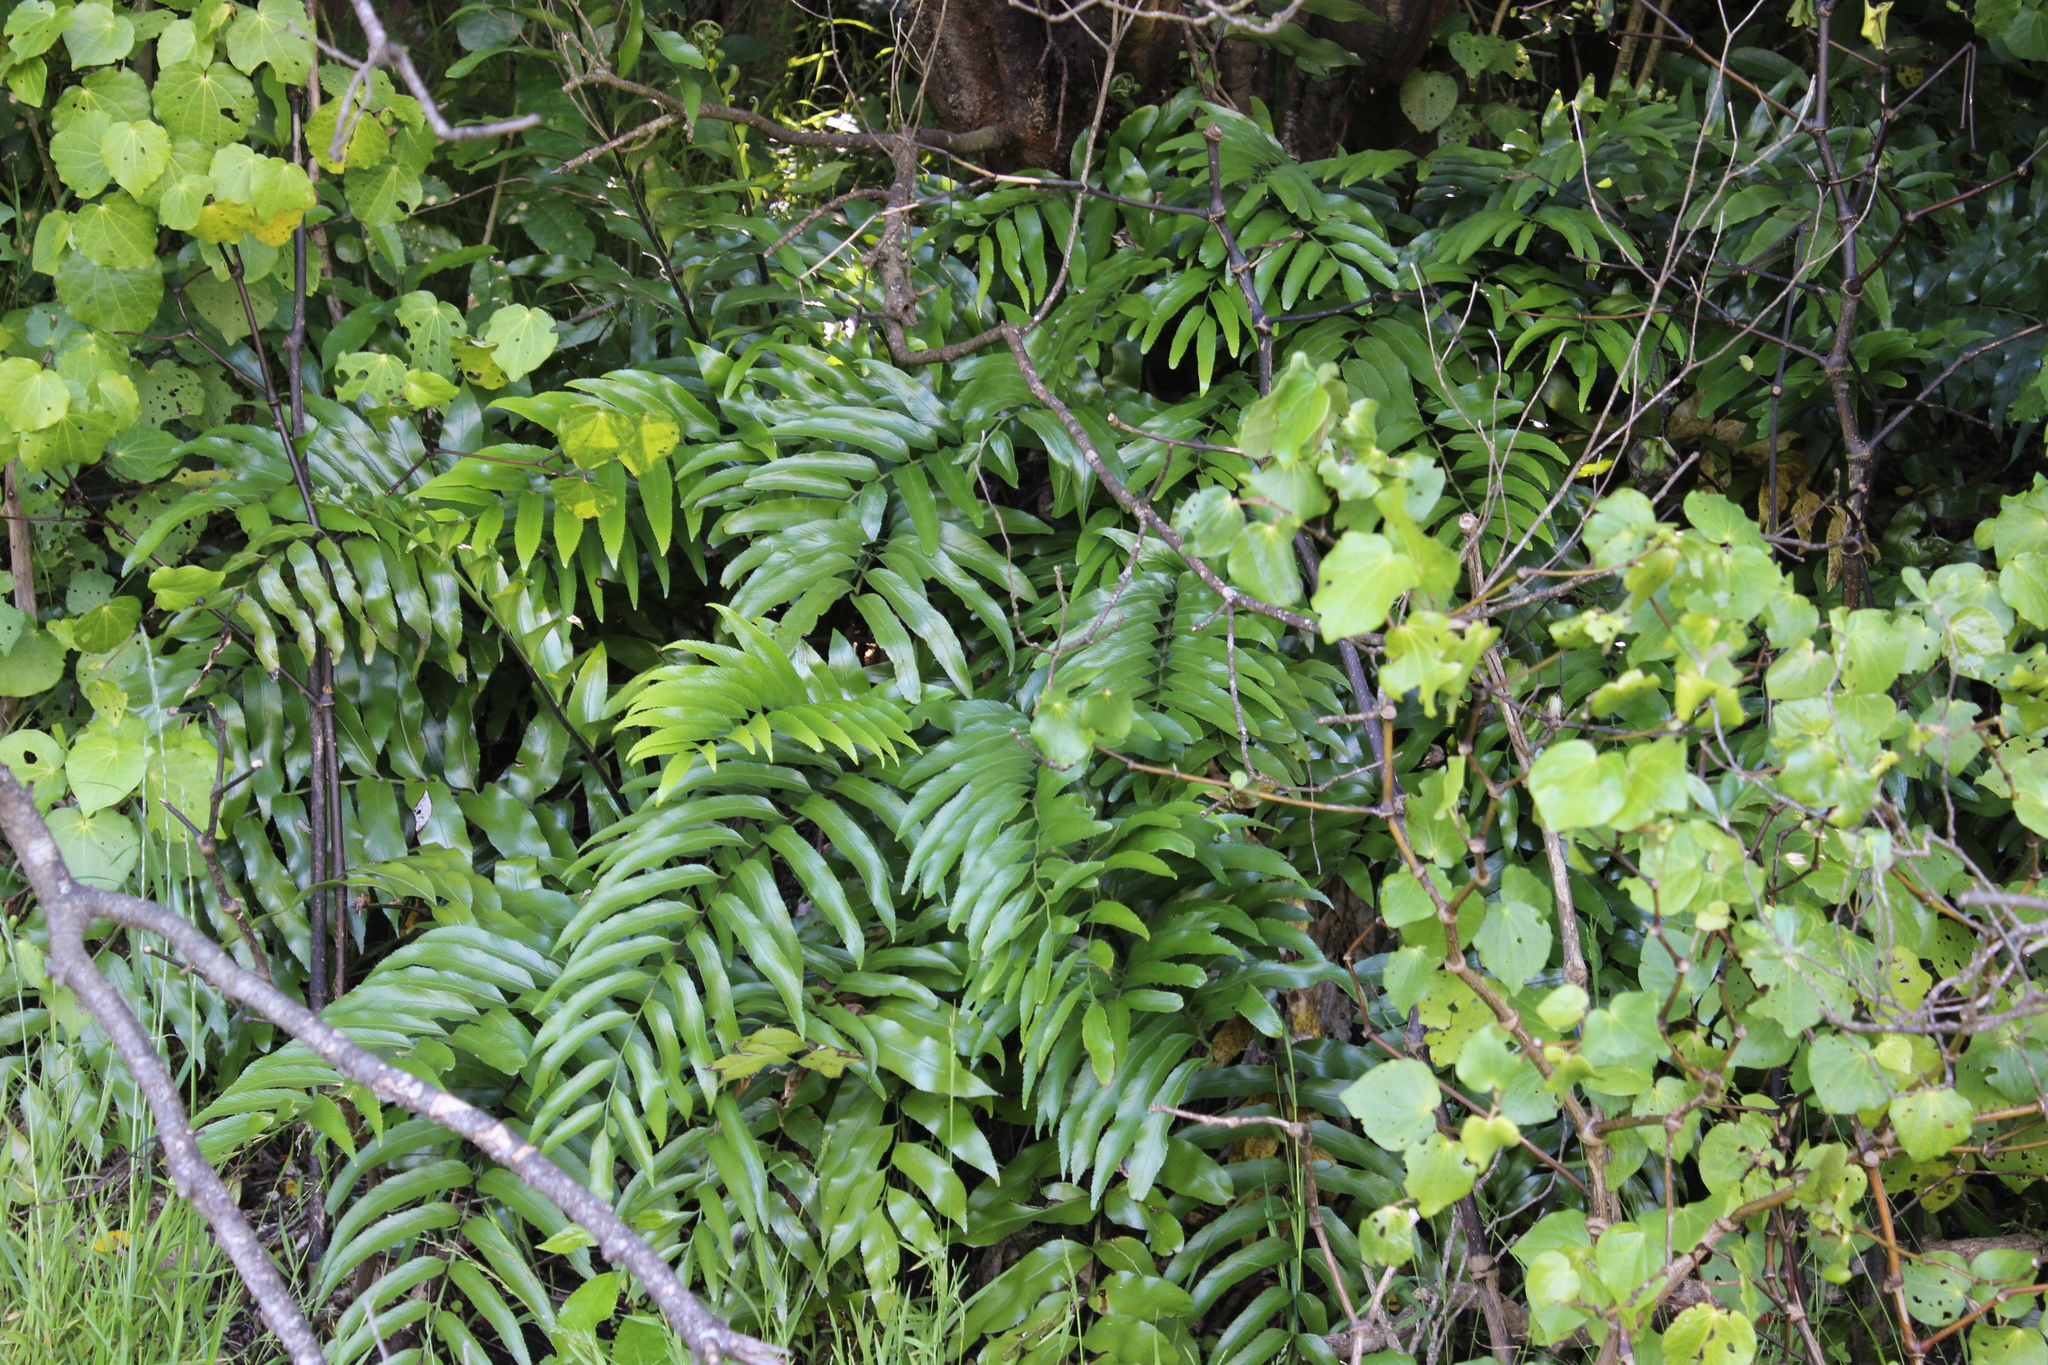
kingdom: Plantae
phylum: Tracheophyta
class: Polypodiopsida
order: Polypodiales
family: Aspleniaceae
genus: Asplenium
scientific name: Asplenium oblongifolium
